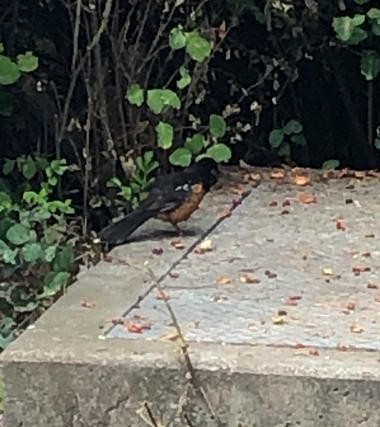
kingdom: Animalia
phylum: Chordata
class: Aves
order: Passeriformes
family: Passerellidae
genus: Pipilo
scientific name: Pipilo maculatus
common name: Spotted towhee
